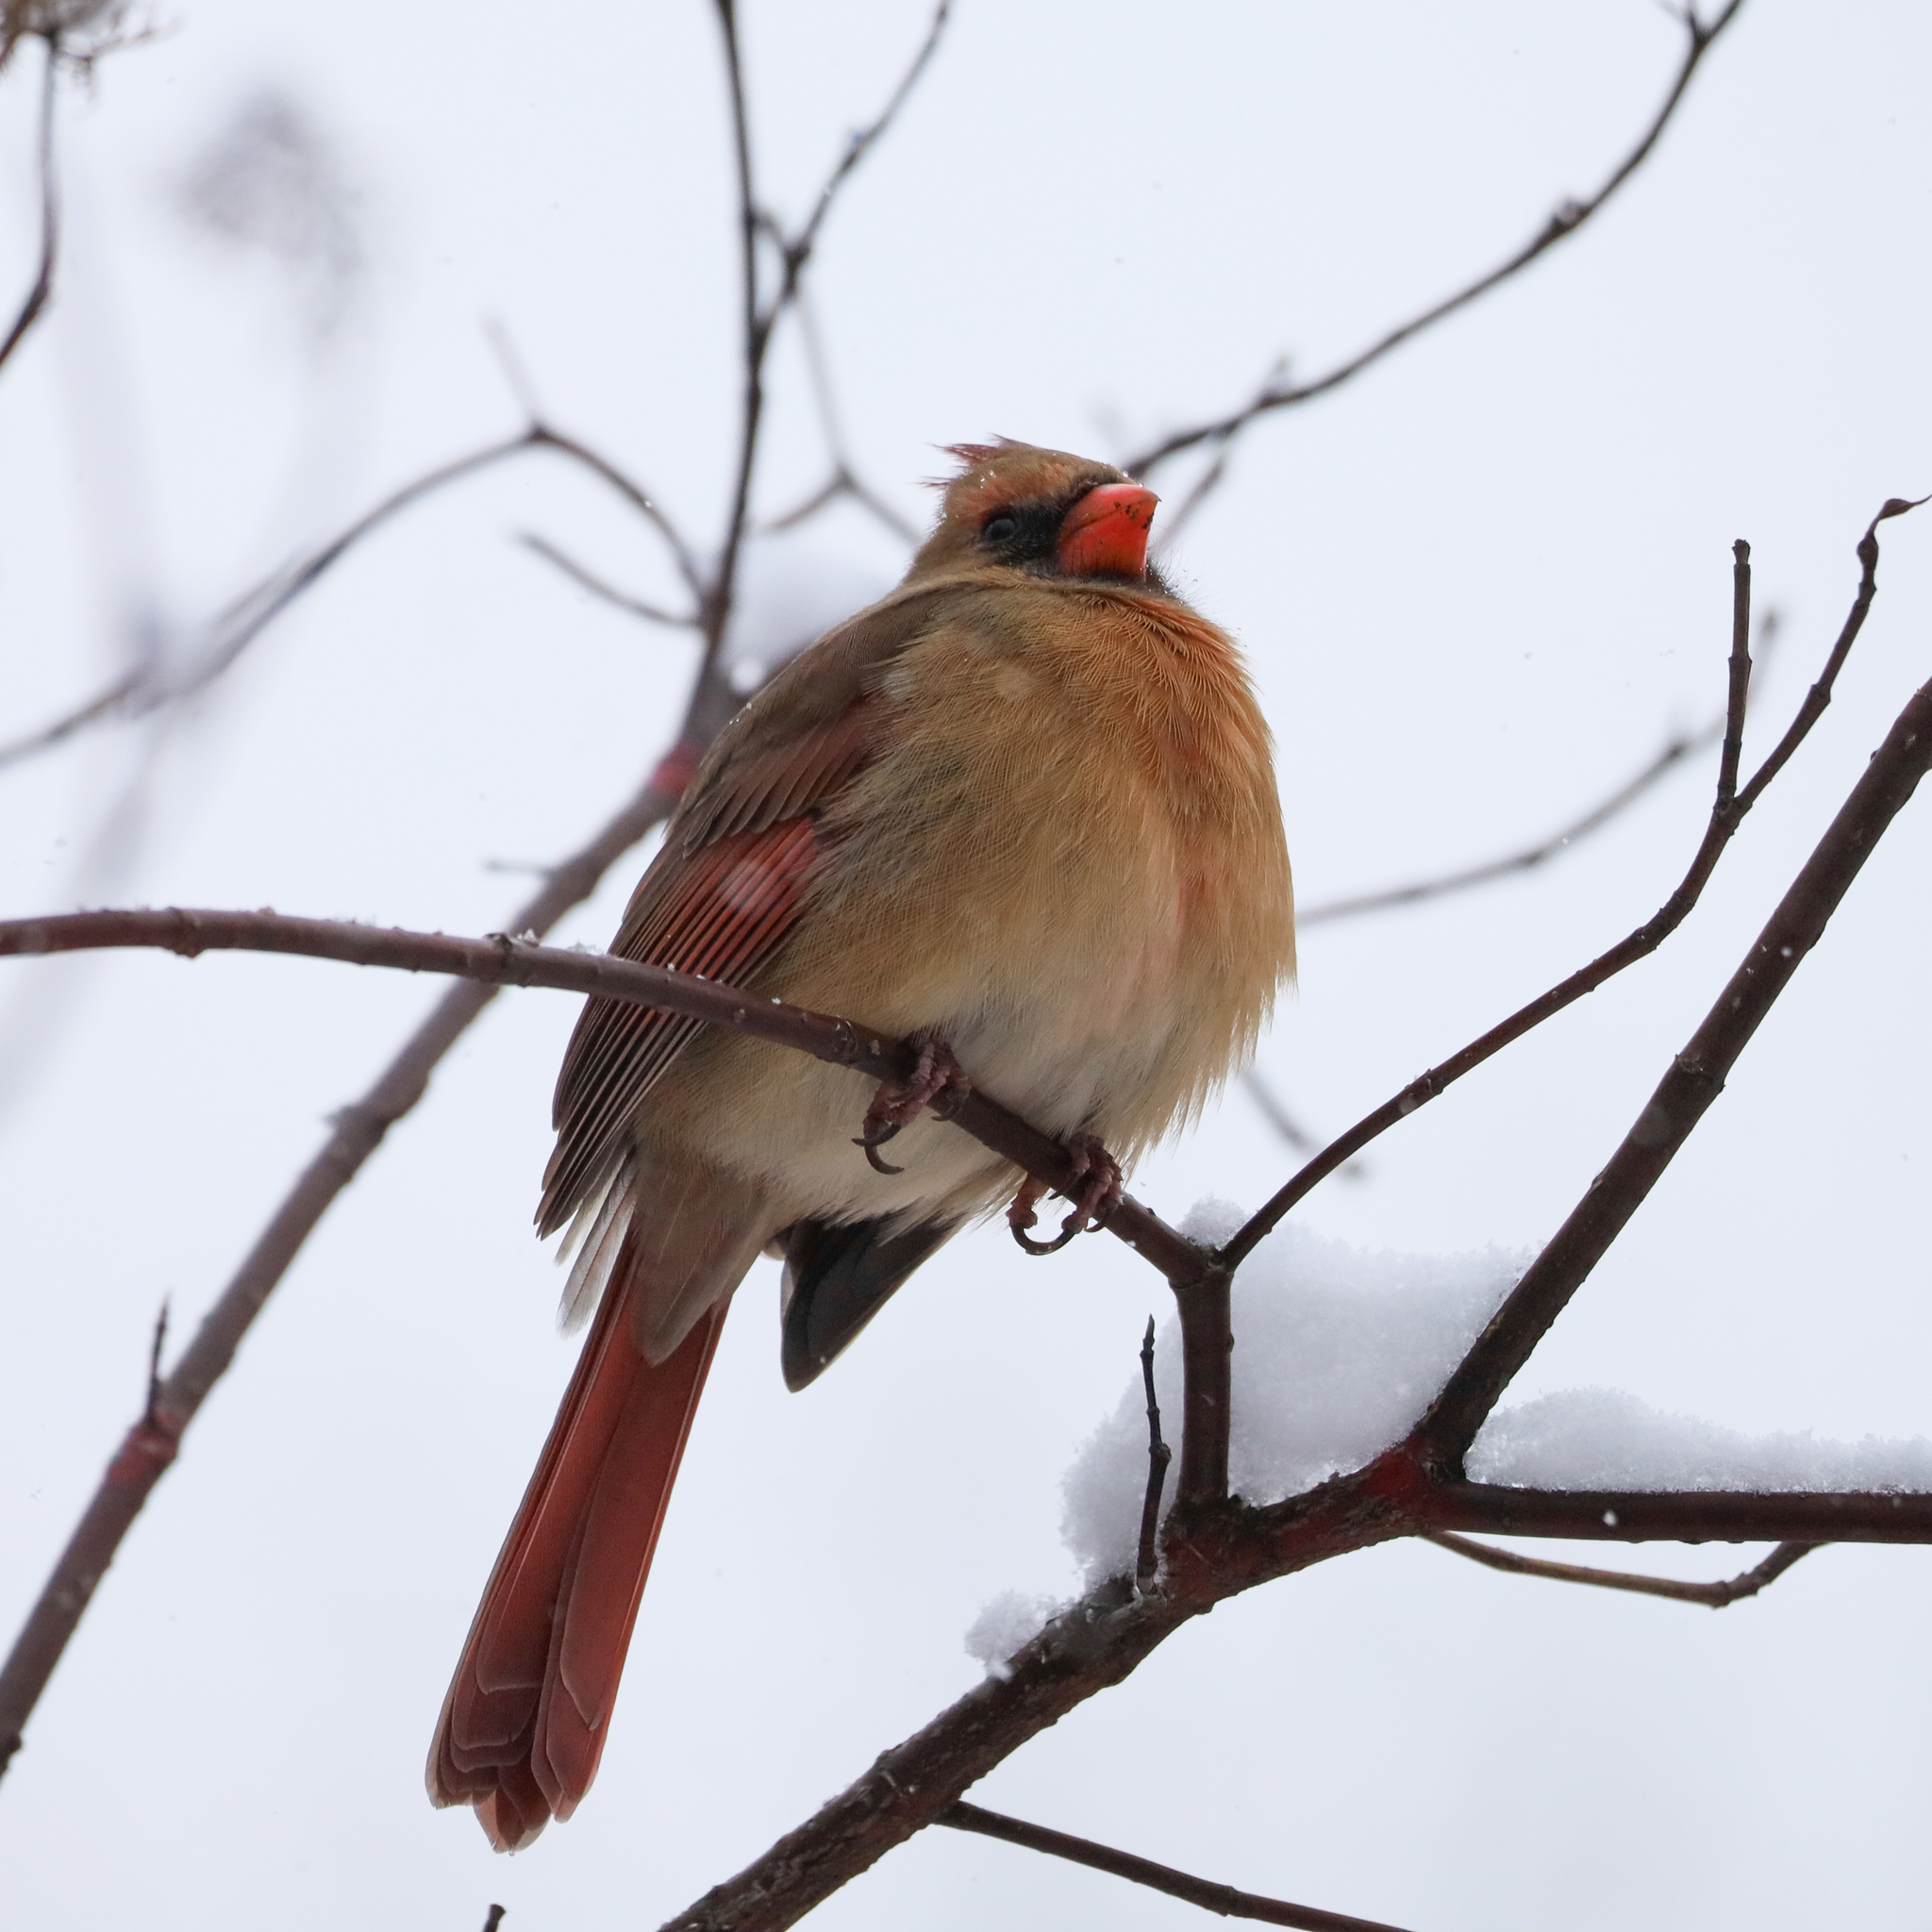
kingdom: Animalia
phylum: Chordata
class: Aves
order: Passeriformes
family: Cardinalidae
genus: Cardinalis
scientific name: Cardinalis cardinalis
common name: Northern cardinal
